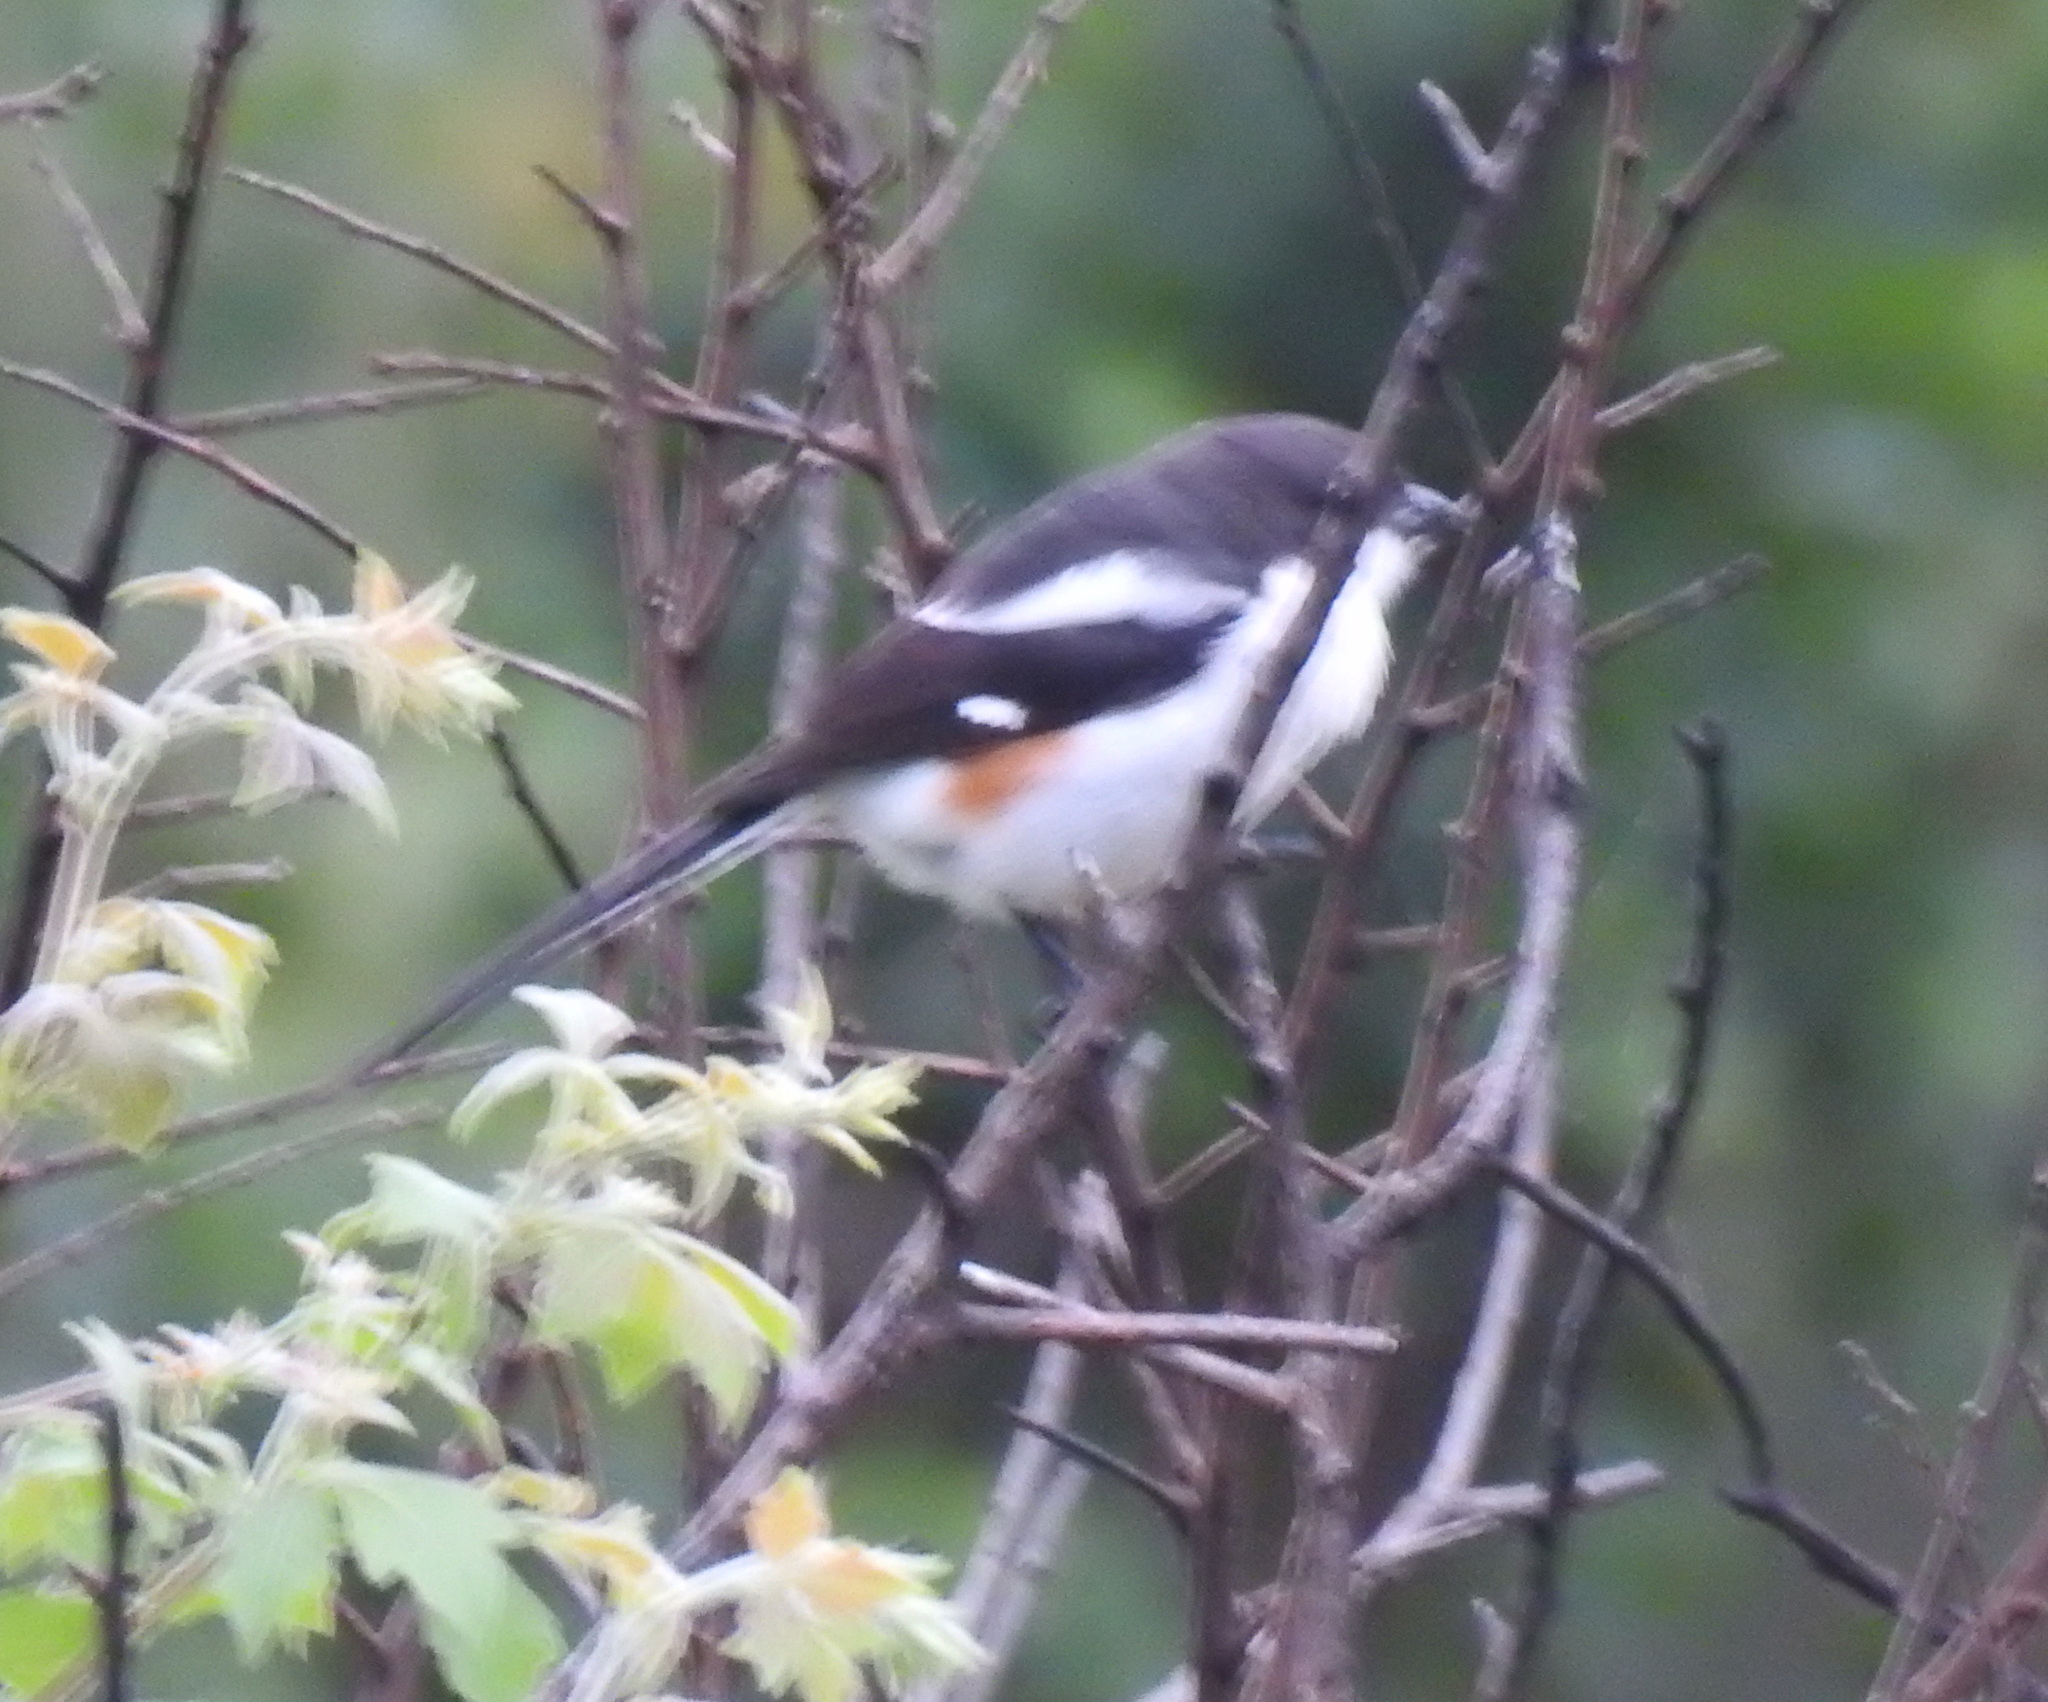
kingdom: Animalia
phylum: Chordata
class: Aves
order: Passeriformes
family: Laniidae
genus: Lanius
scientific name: Lanius collaris
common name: Southern fiscal
